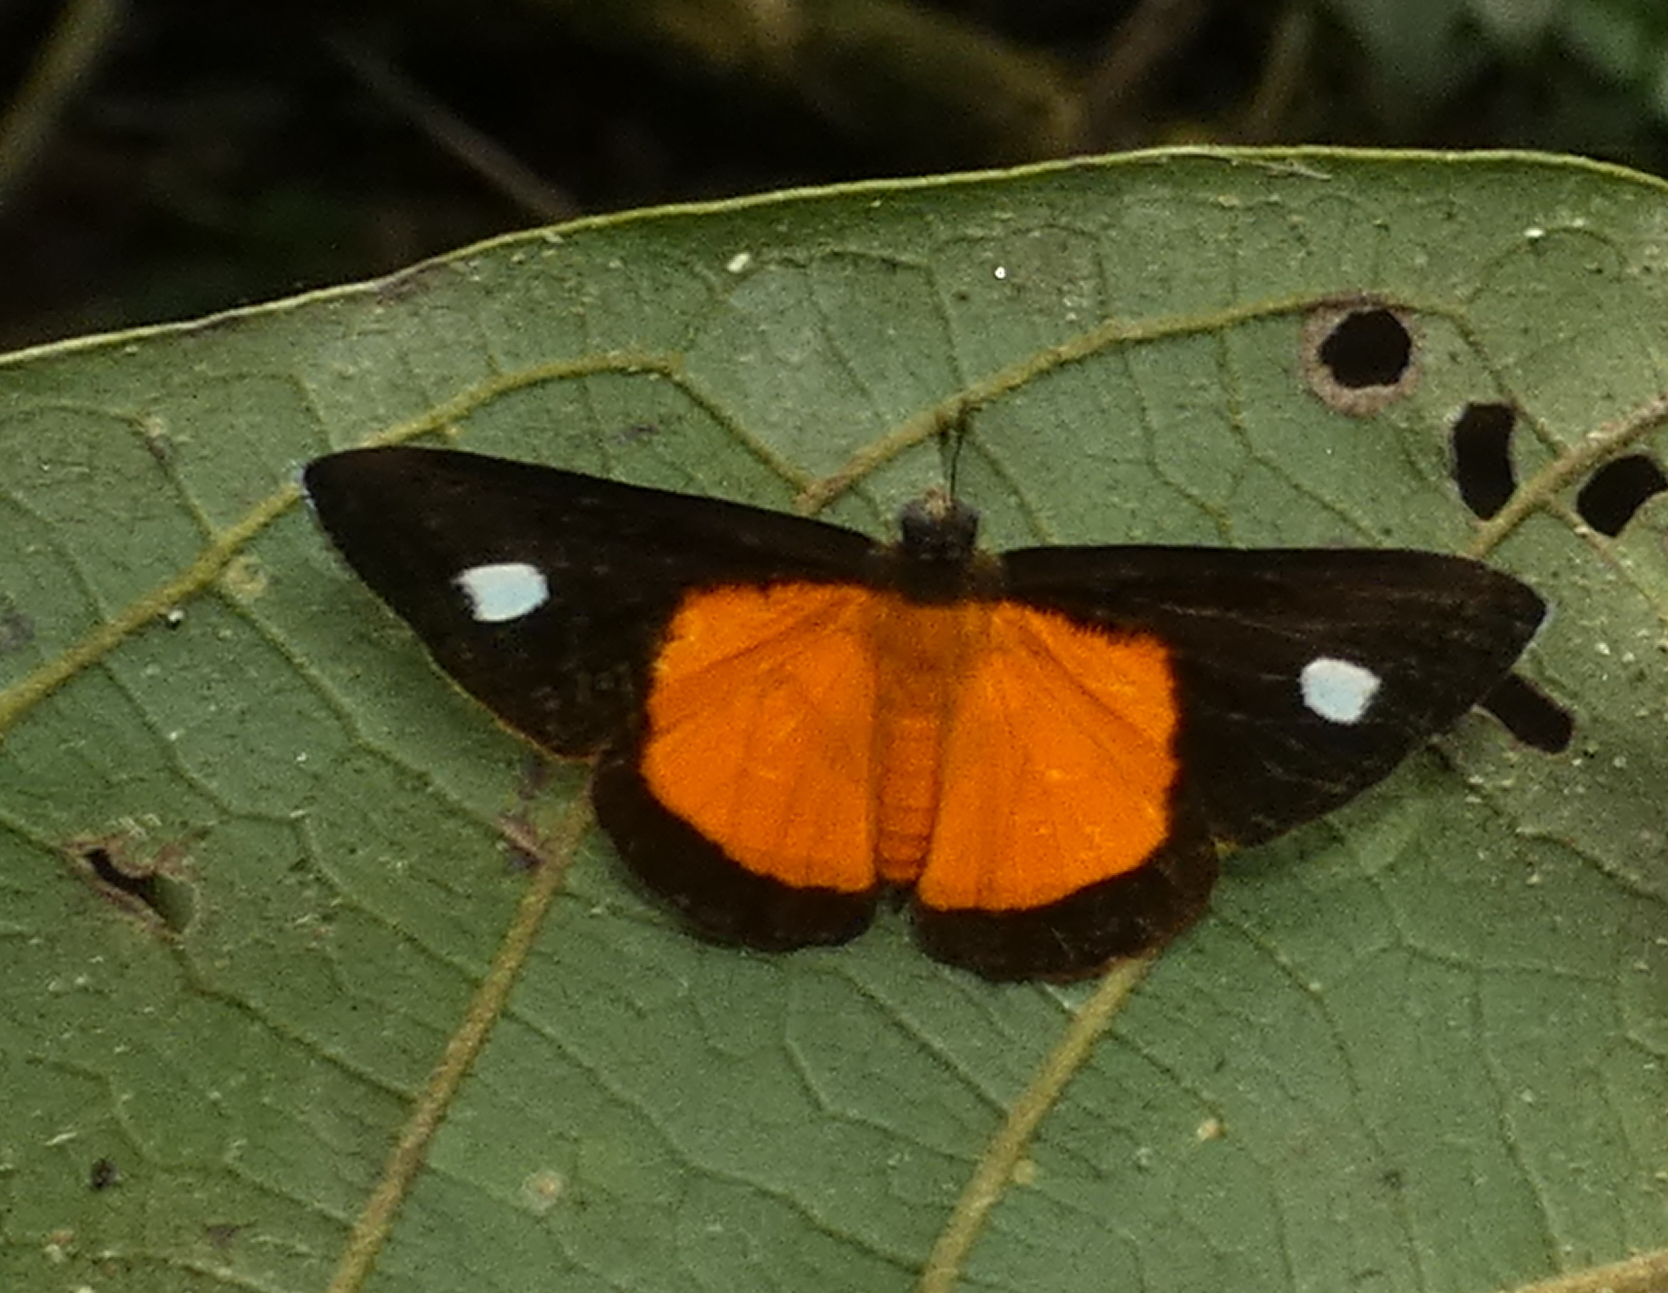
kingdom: Animalia
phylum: Arthropoda
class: Insecta
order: Lepidoptera
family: Lycaenidae
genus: Mesene
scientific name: Mesene hya
